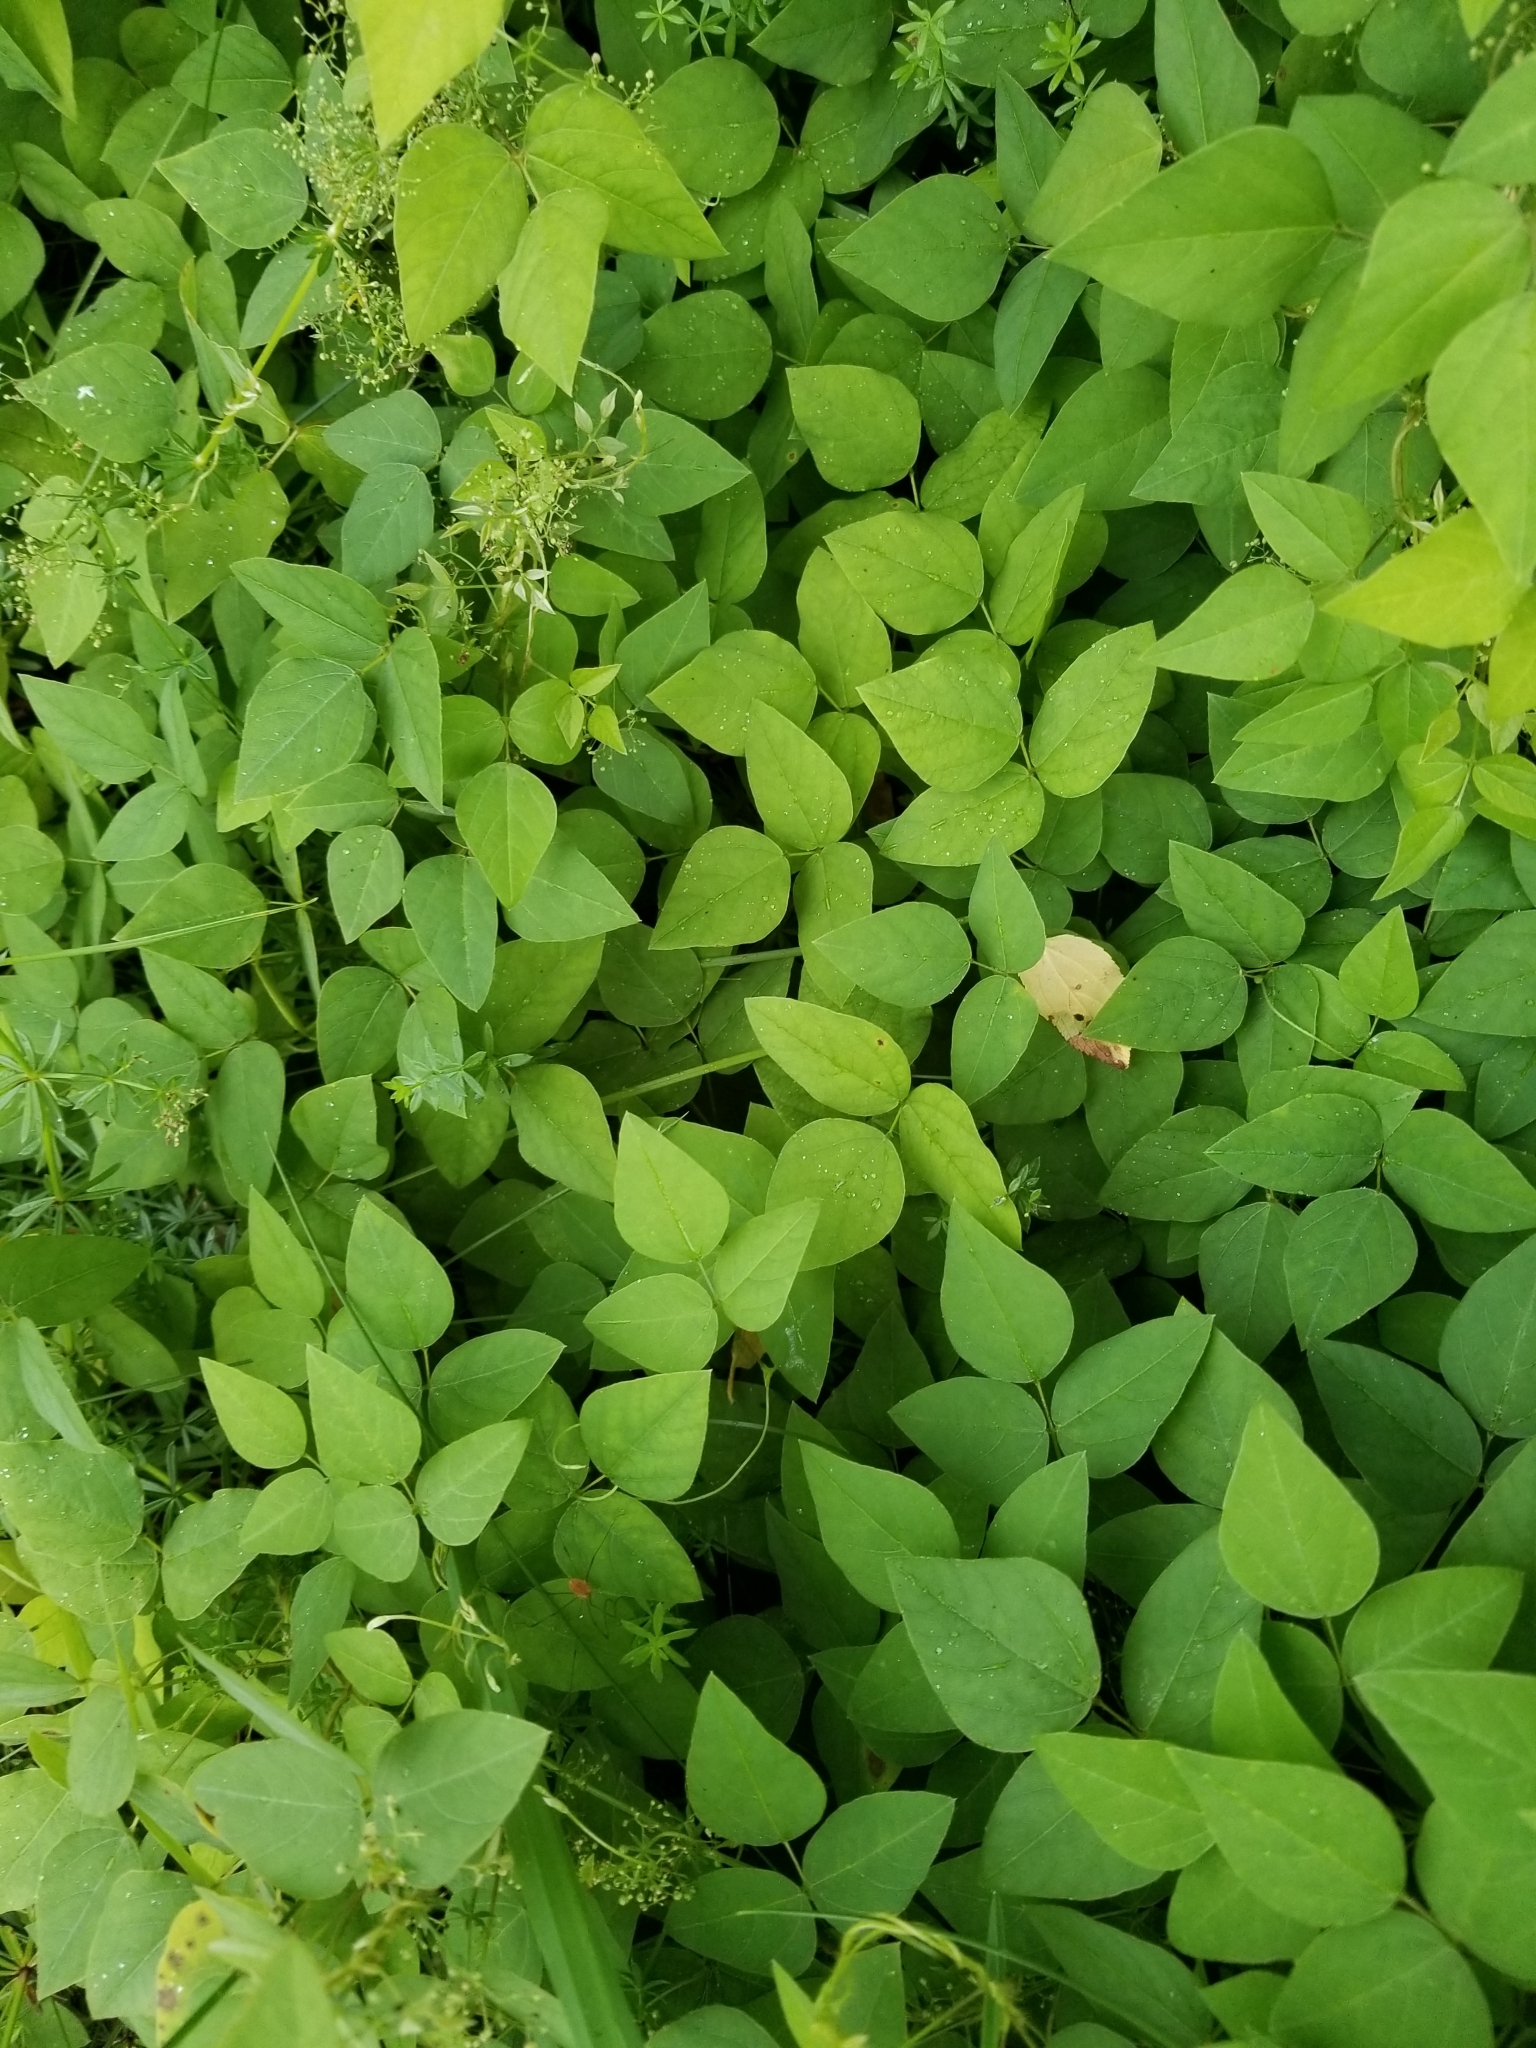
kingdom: Plantae
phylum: Tracheophyta
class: Magnoliopsida
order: Fabales
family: Fabaceae
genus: Amphicarpaea
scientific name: Amphicarpaea bracteata
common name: American hog peanut
